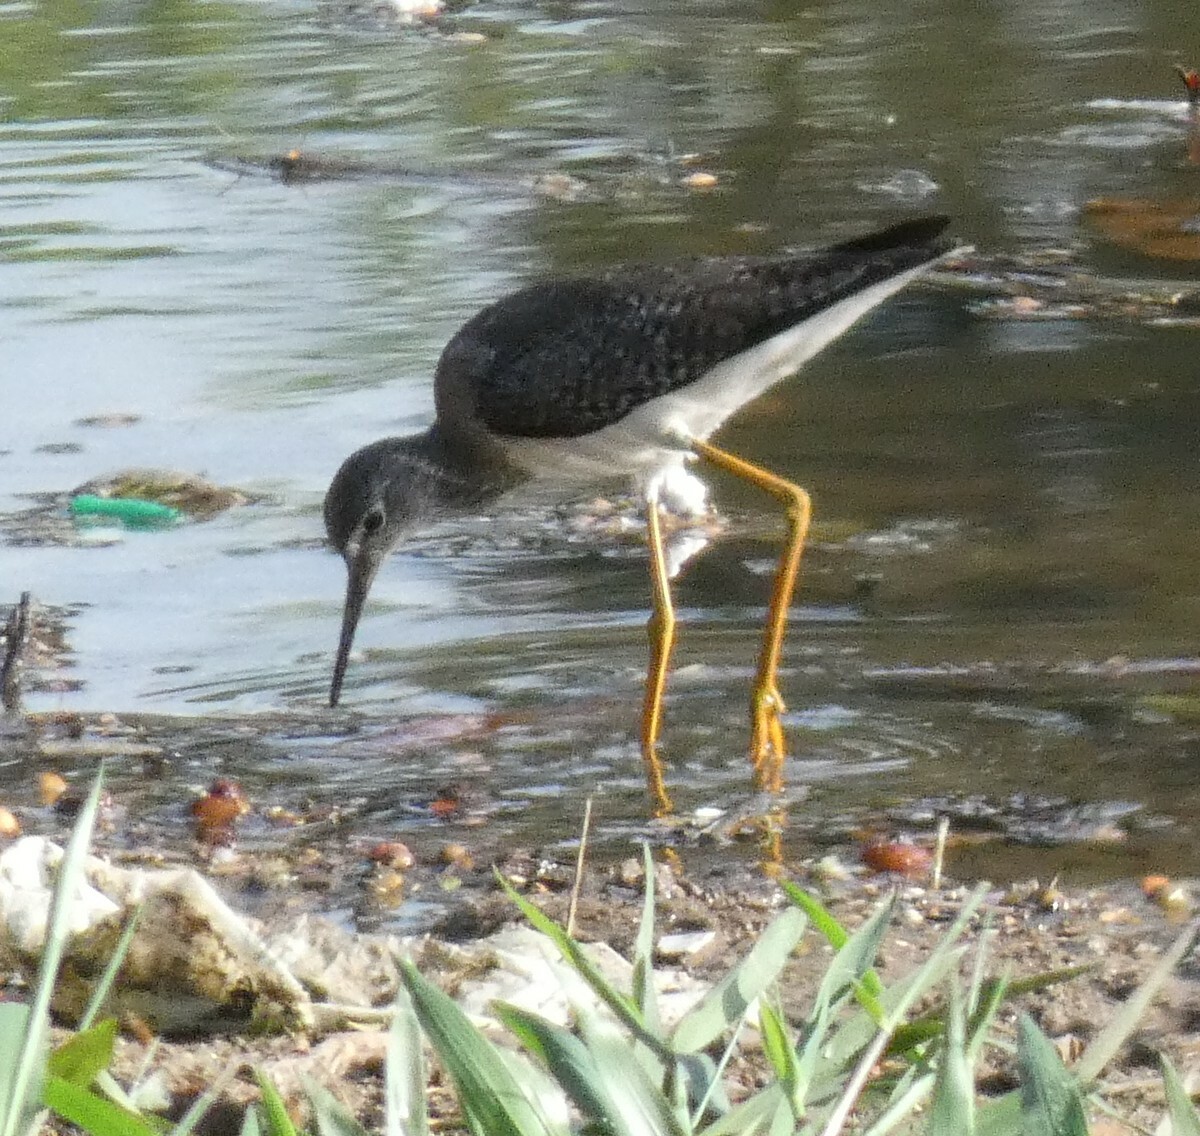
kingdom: Animalia
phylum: Chordata
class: Aves
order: Charadriiformes
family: Scolopacidae
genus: Tringa
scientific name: Tringa flavipes
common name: Lesser yellowlegs
